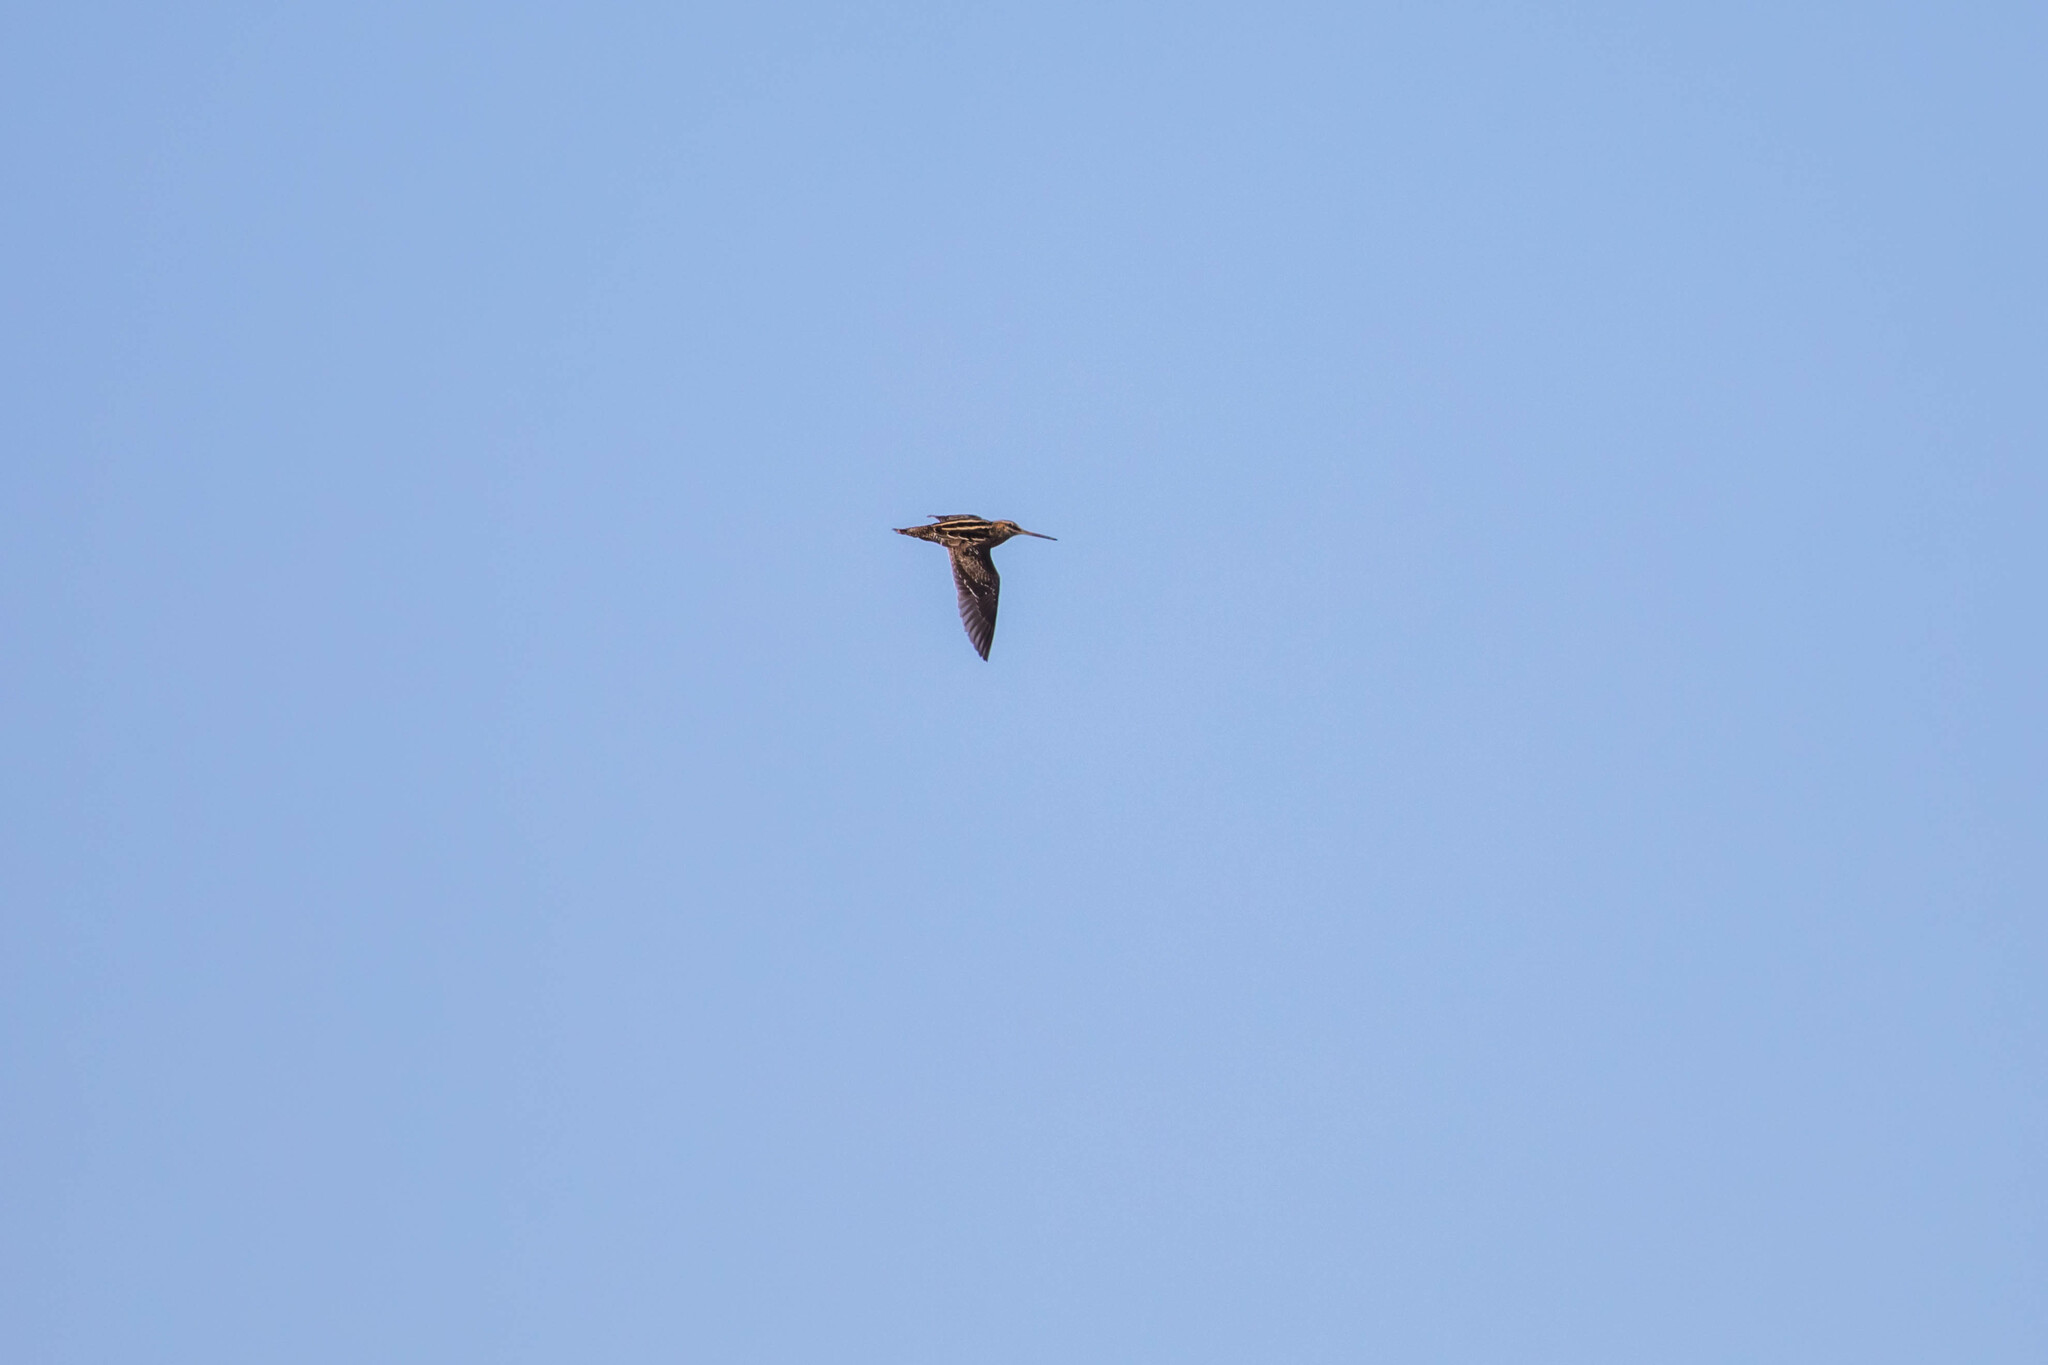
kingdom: Animalia
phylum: Chordata
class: Aves
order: Charadriiformes
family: Scolopacidae
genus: Gallinago
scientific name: Gallinago delicata
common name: Wilson's snipe
